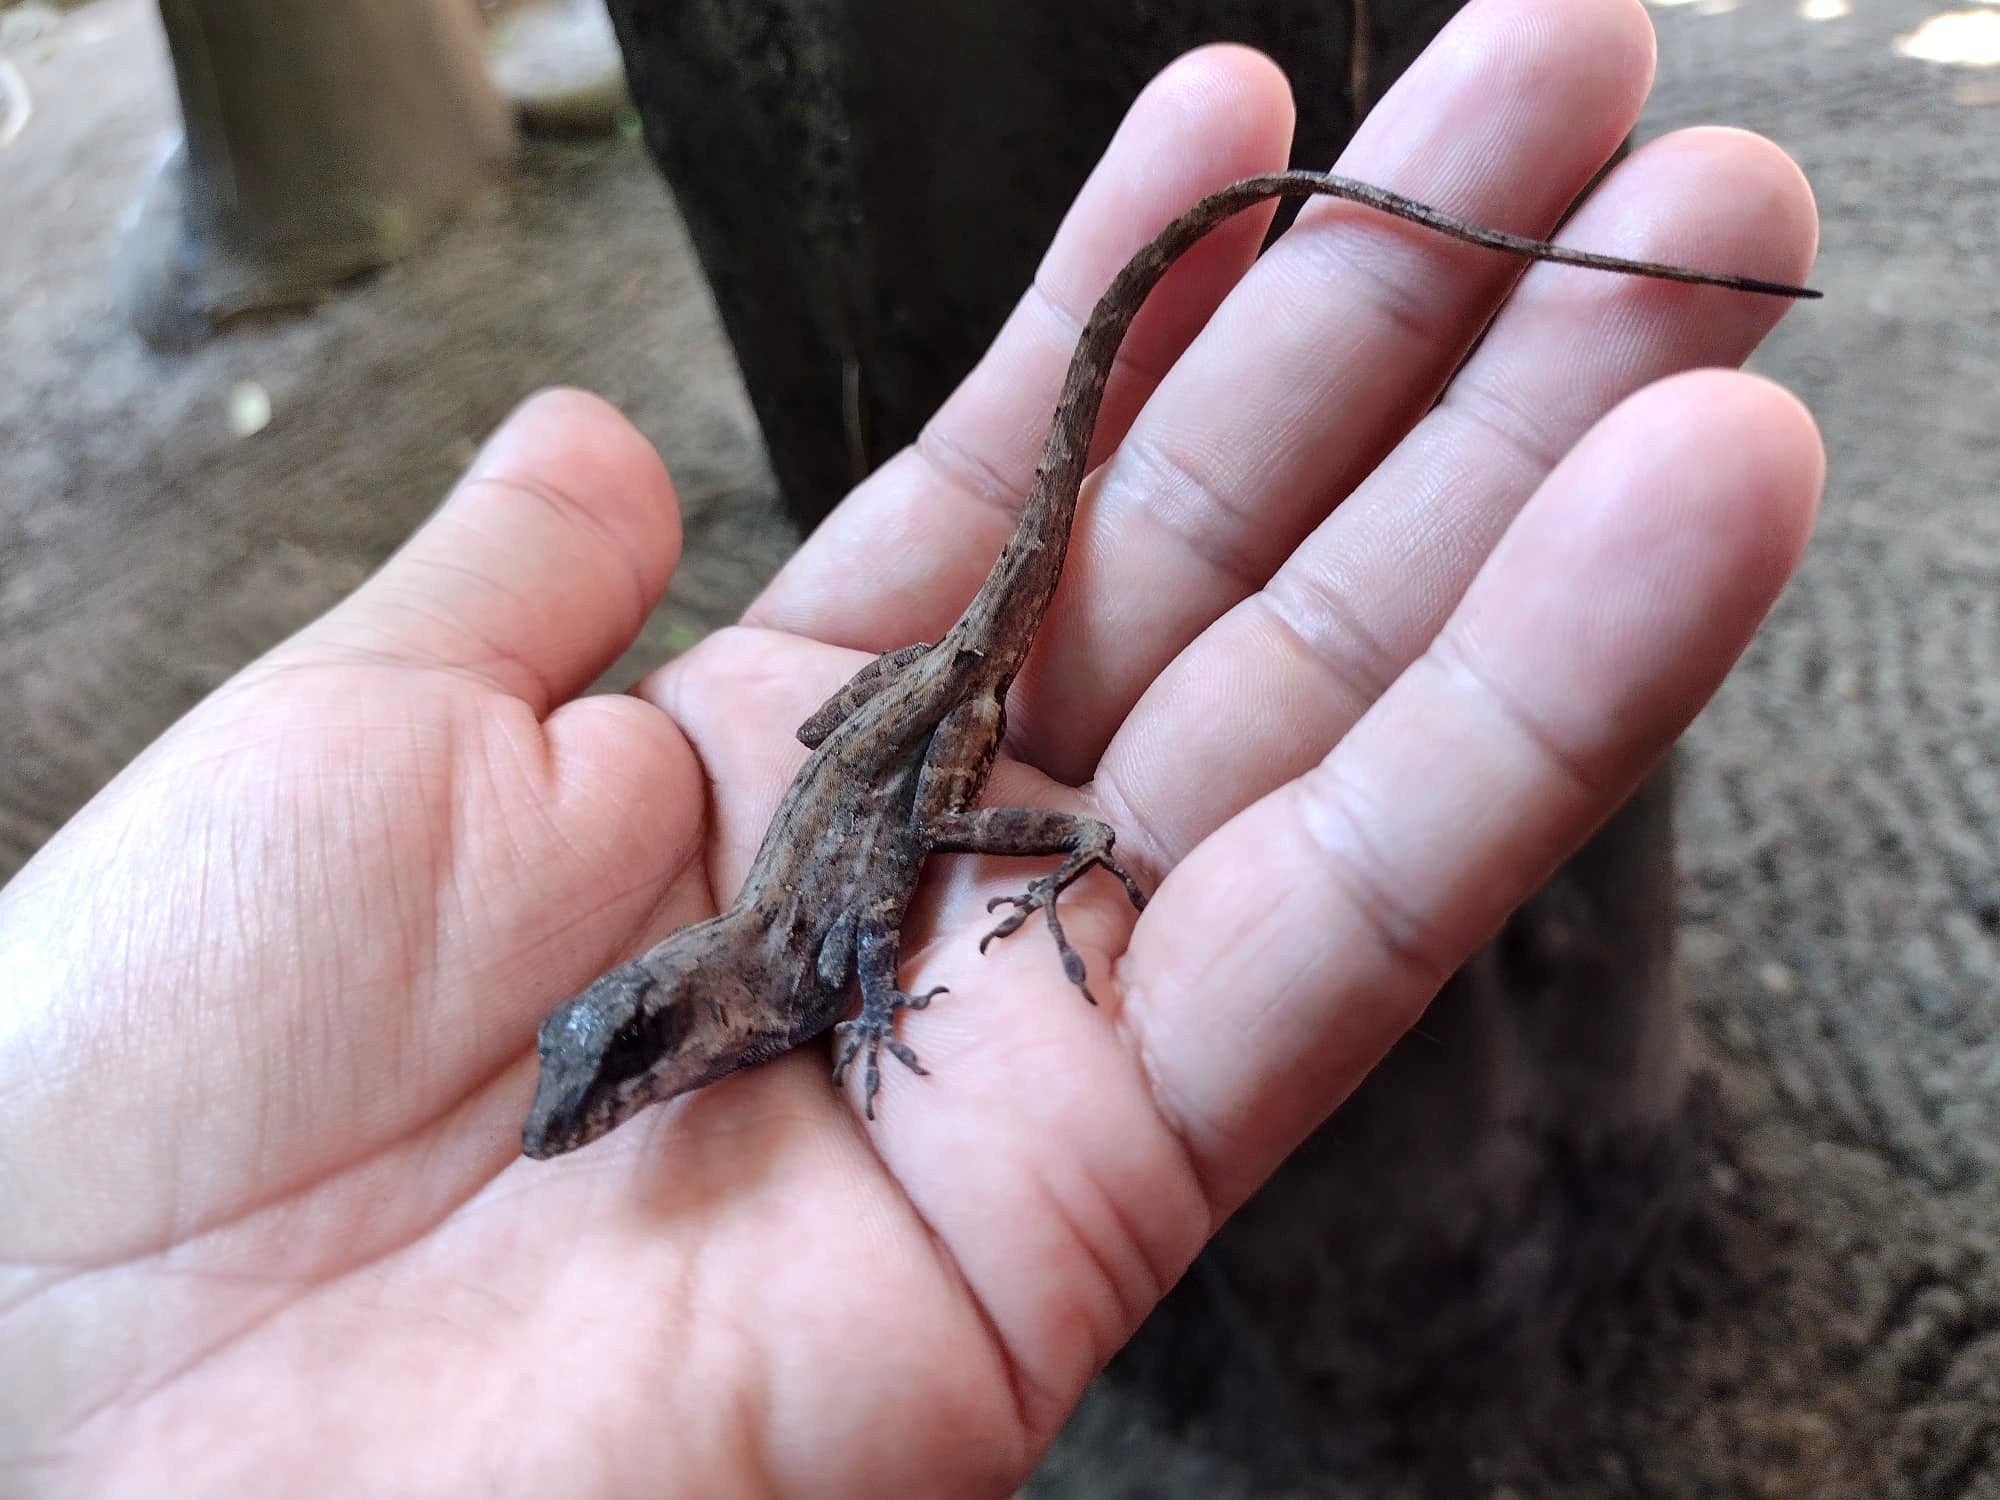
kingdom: Animalia
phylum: Chordata
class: Squamata
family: Dactyloidae
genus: Anolis
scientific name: Anolis sagrei
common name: Brown anole
